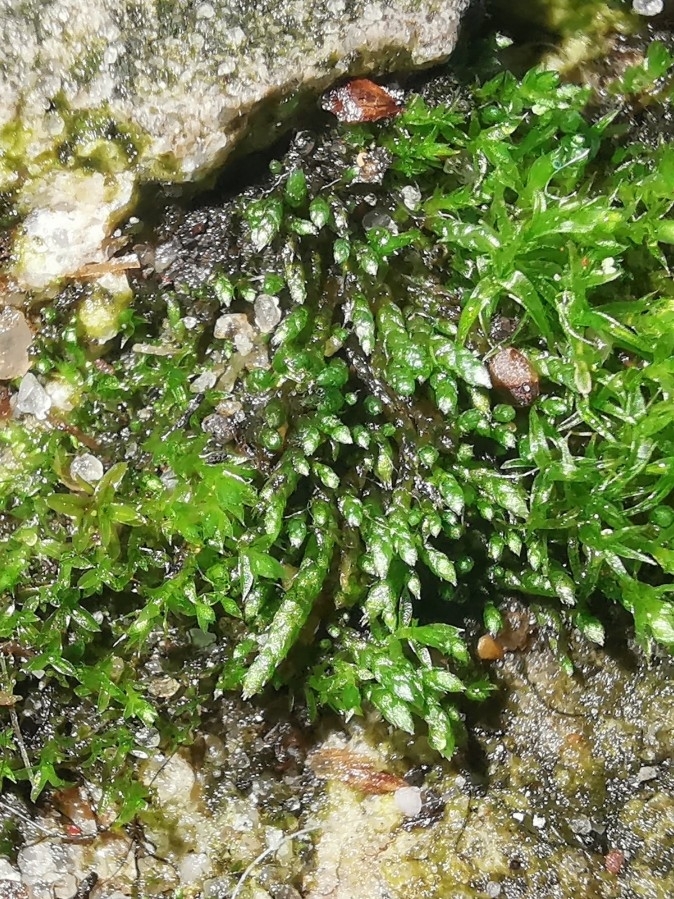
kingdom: Plantae
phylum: Bryophyta
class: Bryopsida
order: Bryales
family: Bryaceae
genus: Bryum
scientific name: Bryum argenteum
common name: Silver-moss
